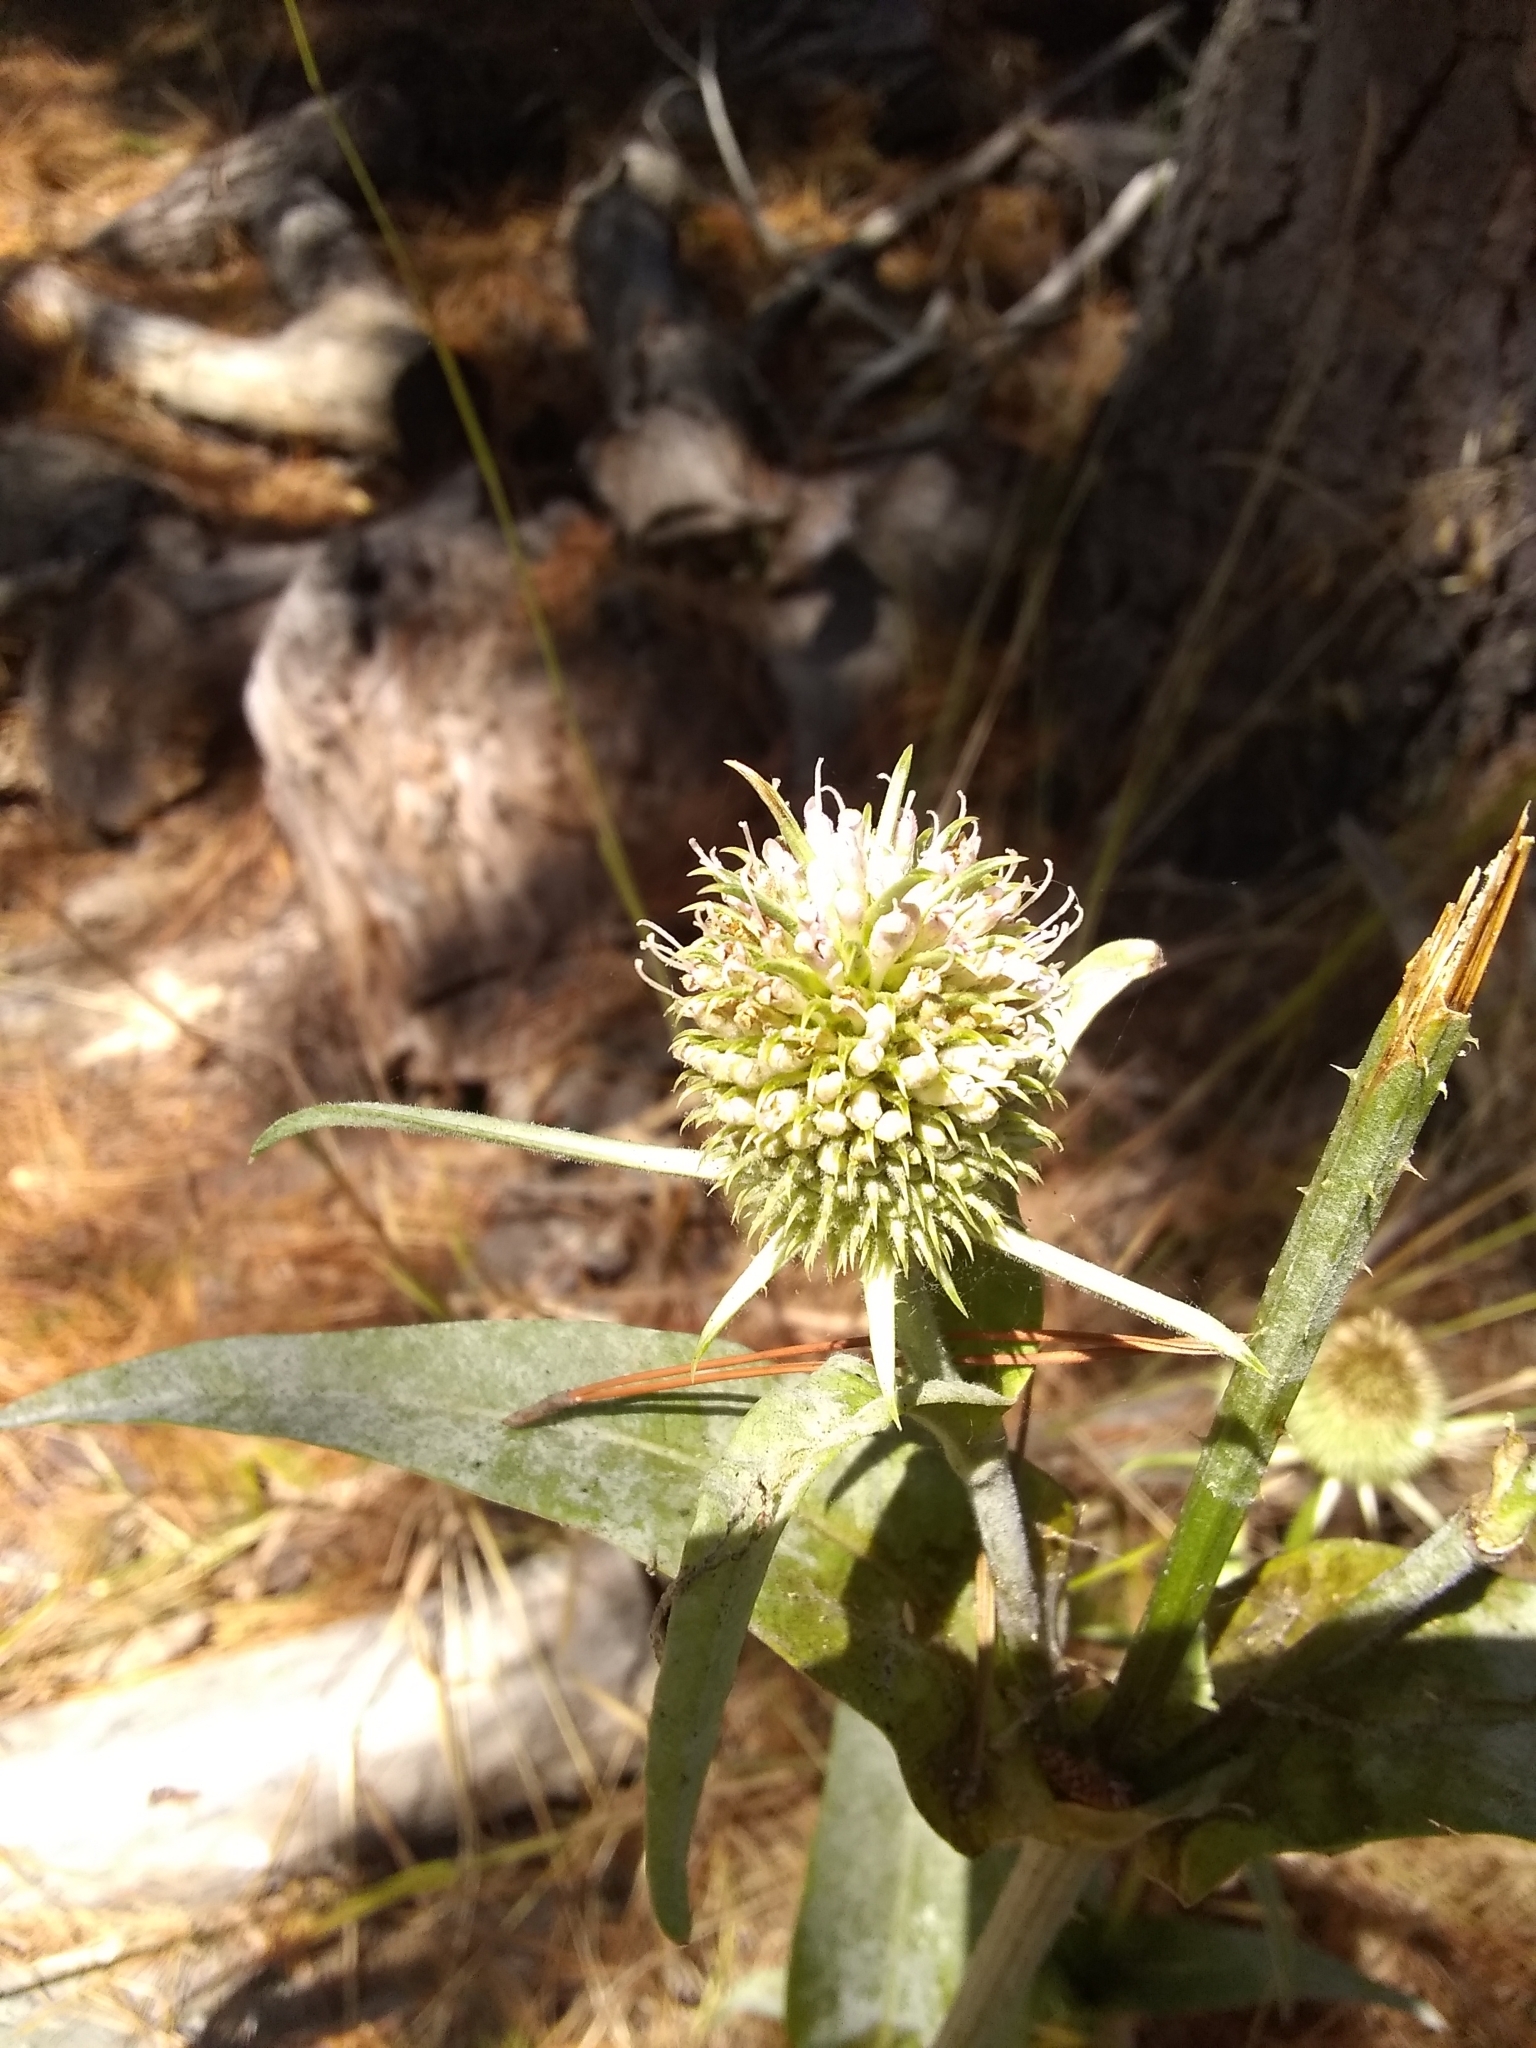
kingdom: Plantae
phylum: Tracheophyta
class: Magnoliopsida
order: Dipsacales
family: Caprifoliaceae
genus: Dipsacus
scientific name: Dipsacus sativus
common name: Fuller's teasel
